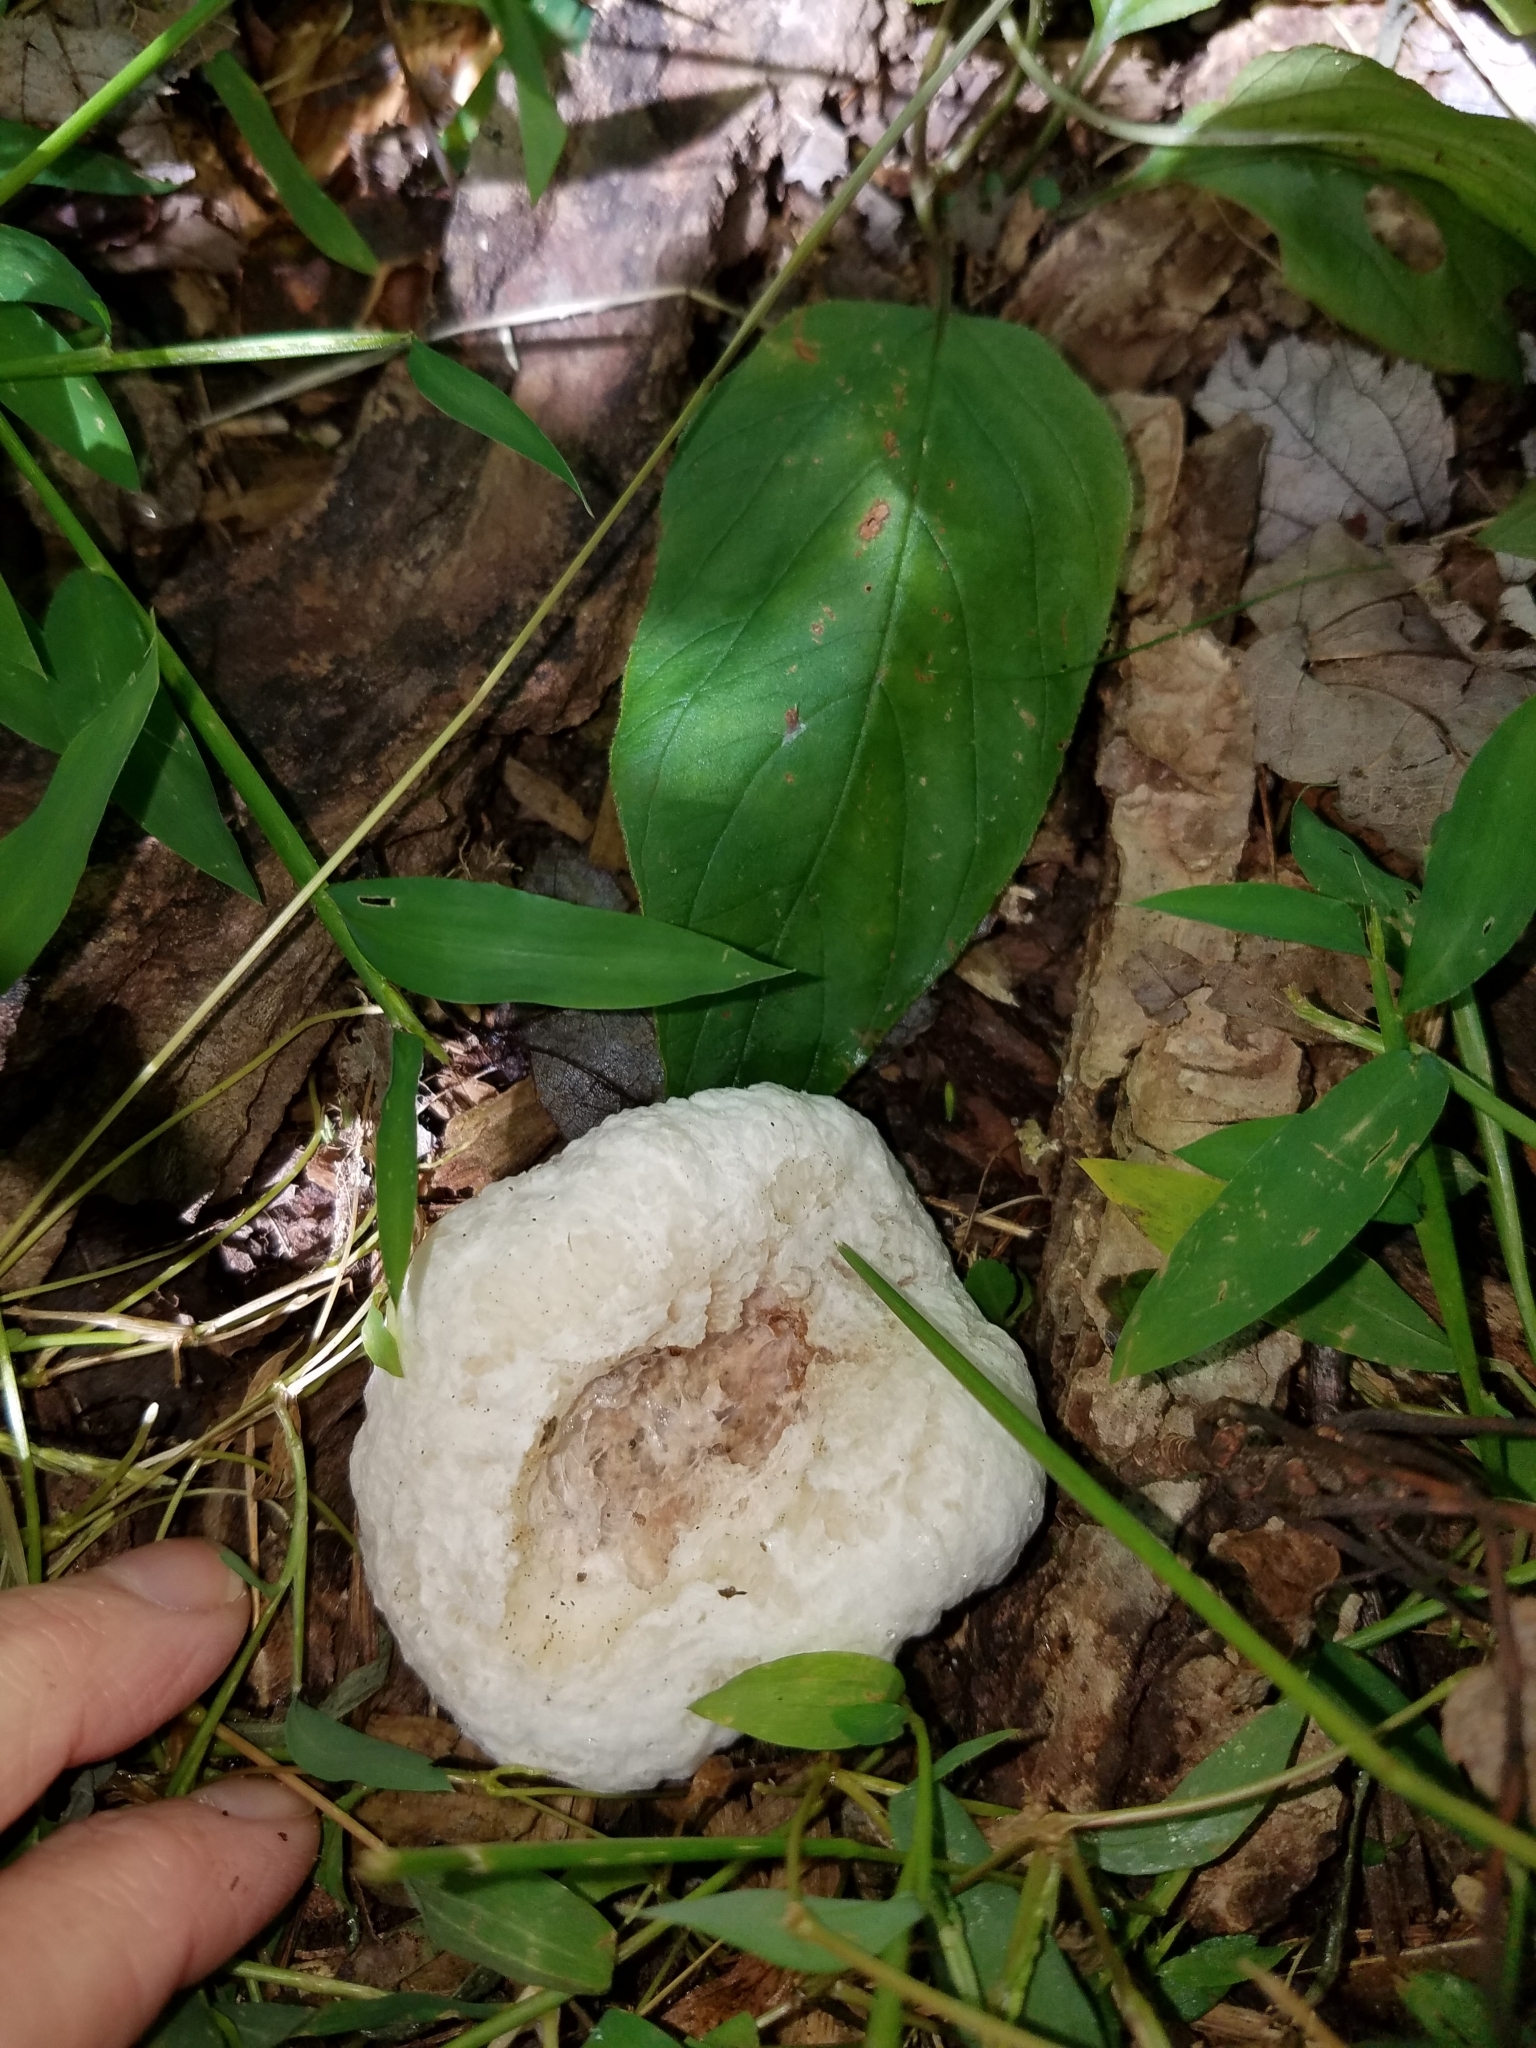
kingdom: Fungi
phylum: Basidiomycota
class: Agaricomycetes
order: Agaricales
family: Entolomataceae
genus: Entoloma
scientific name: Entoloma abortivum
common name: Aborted entoloma
